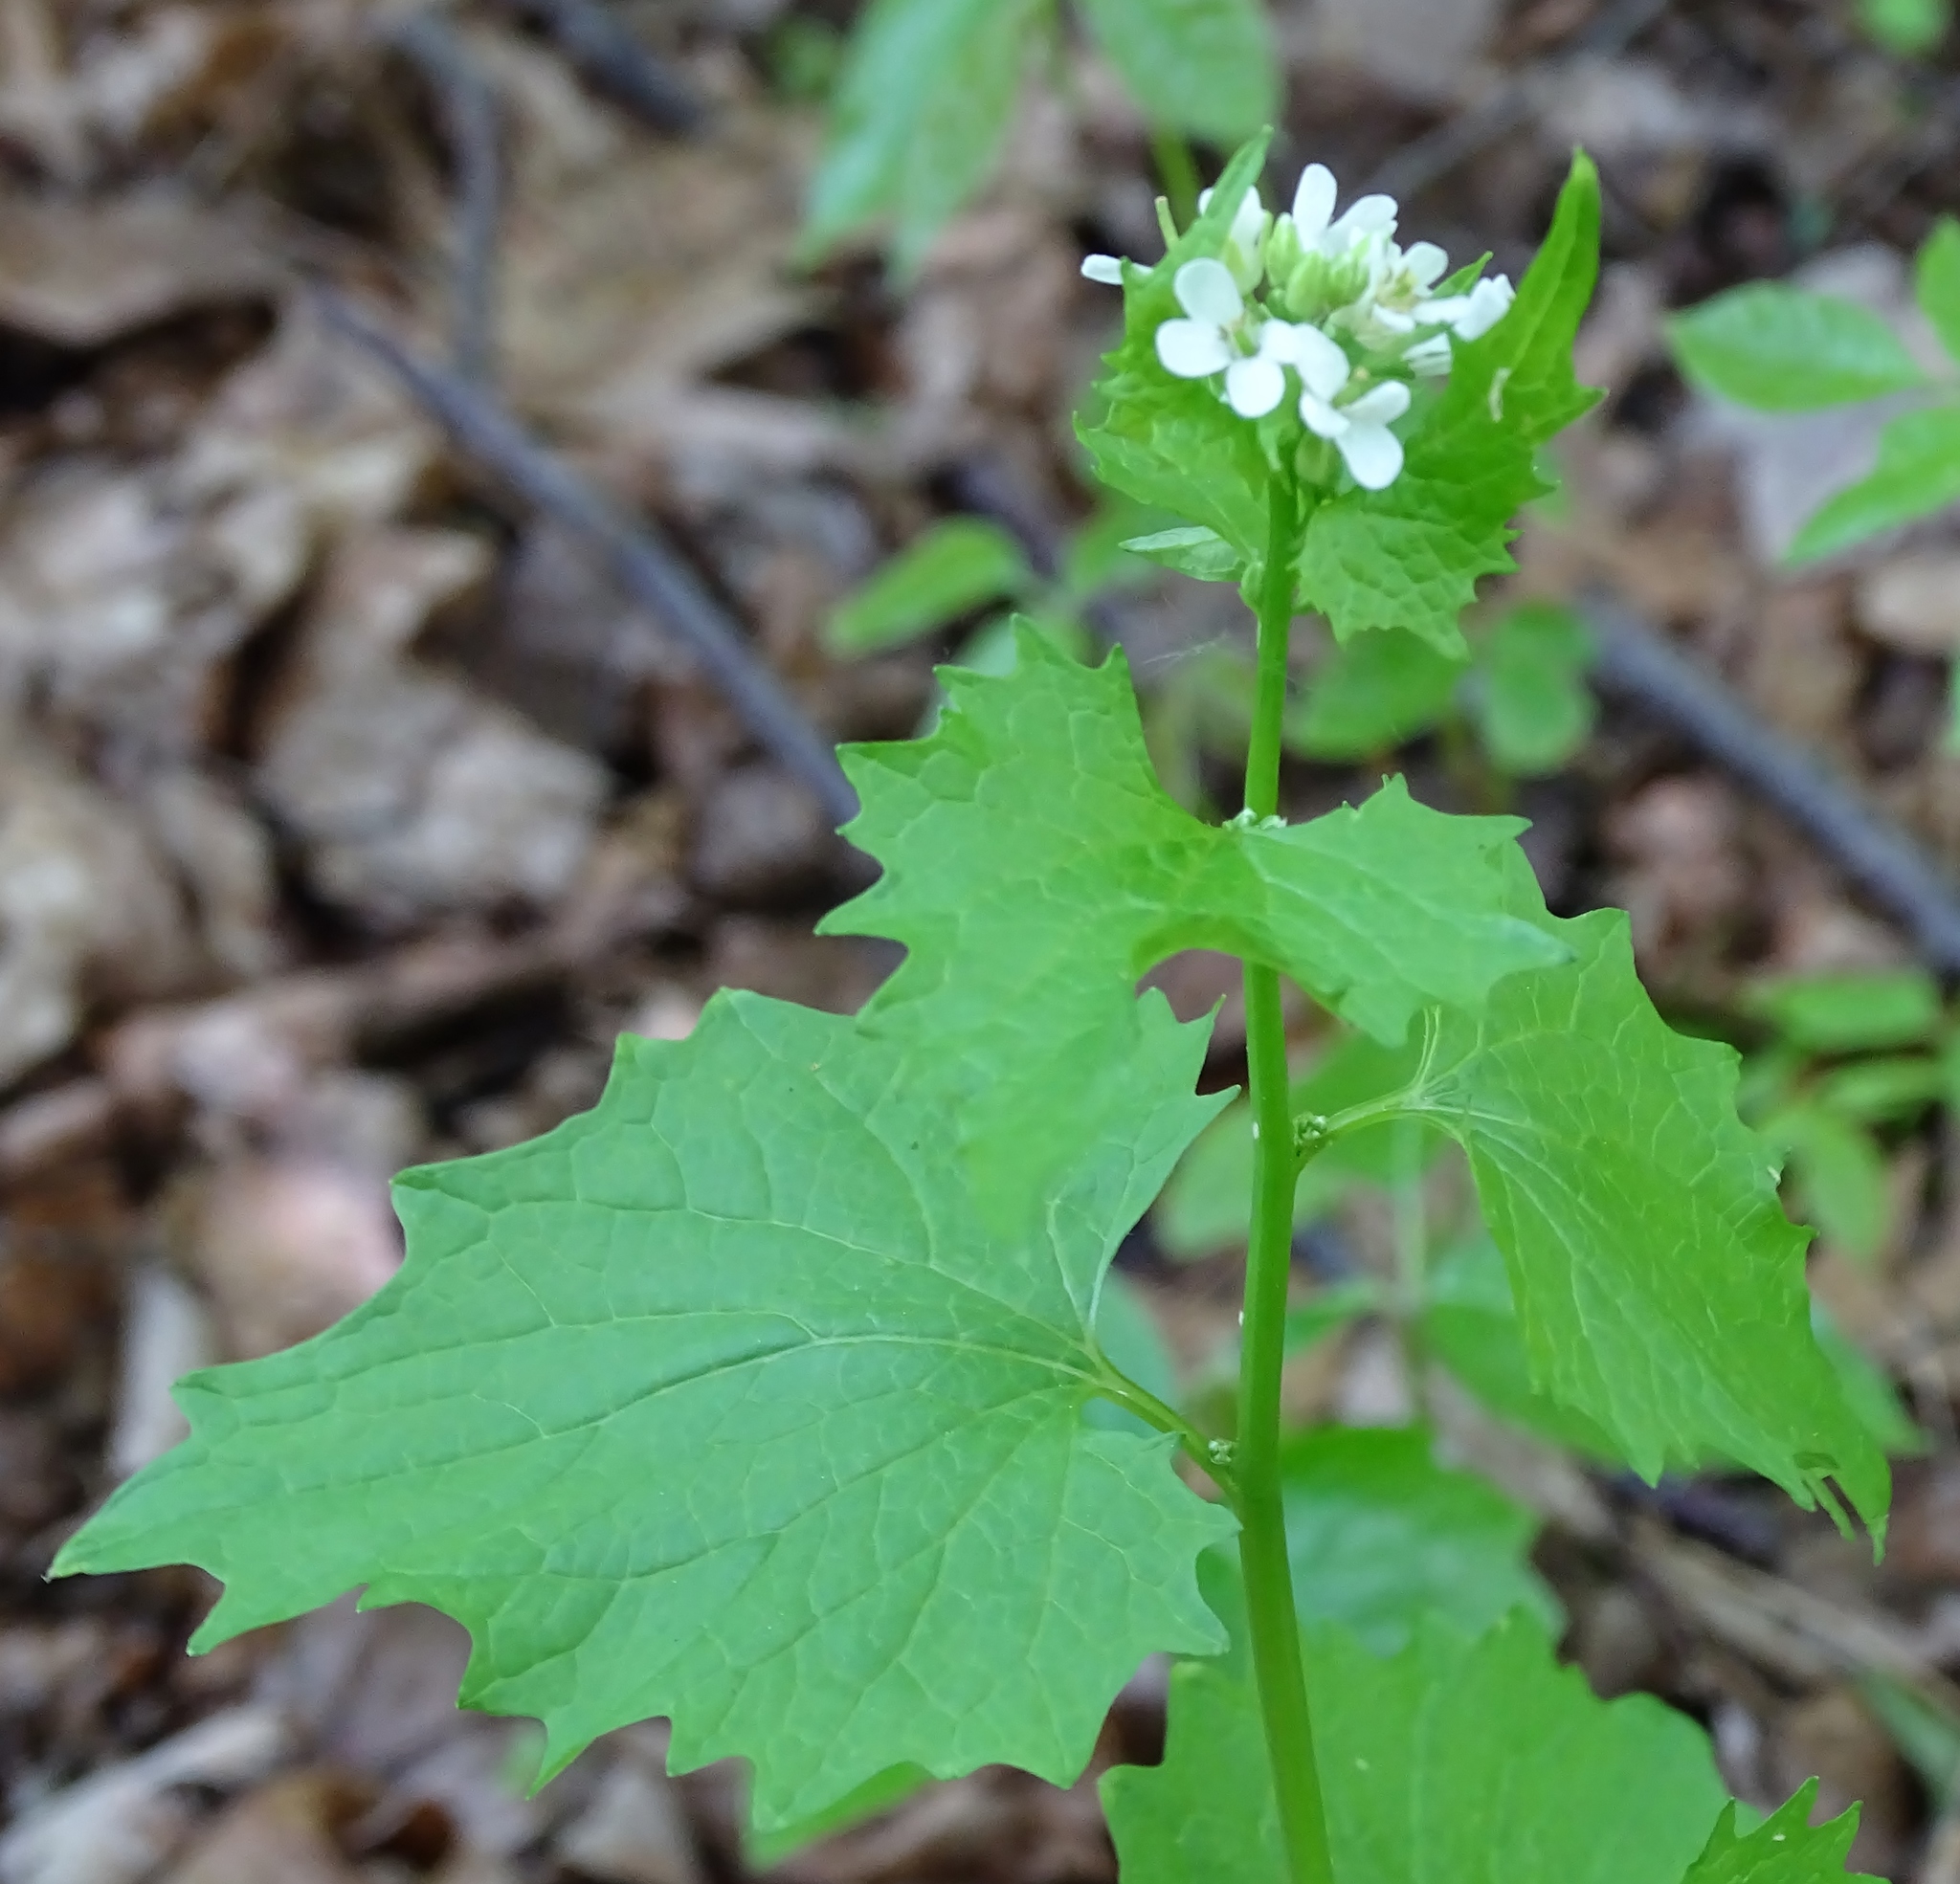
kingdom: Plantae
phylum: Tracheophyta
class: Magnoliopsida
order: Brassicales
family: Brassicaceae
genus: Alliaria
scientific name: Alliaria petiolata
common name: Garlic mustard
